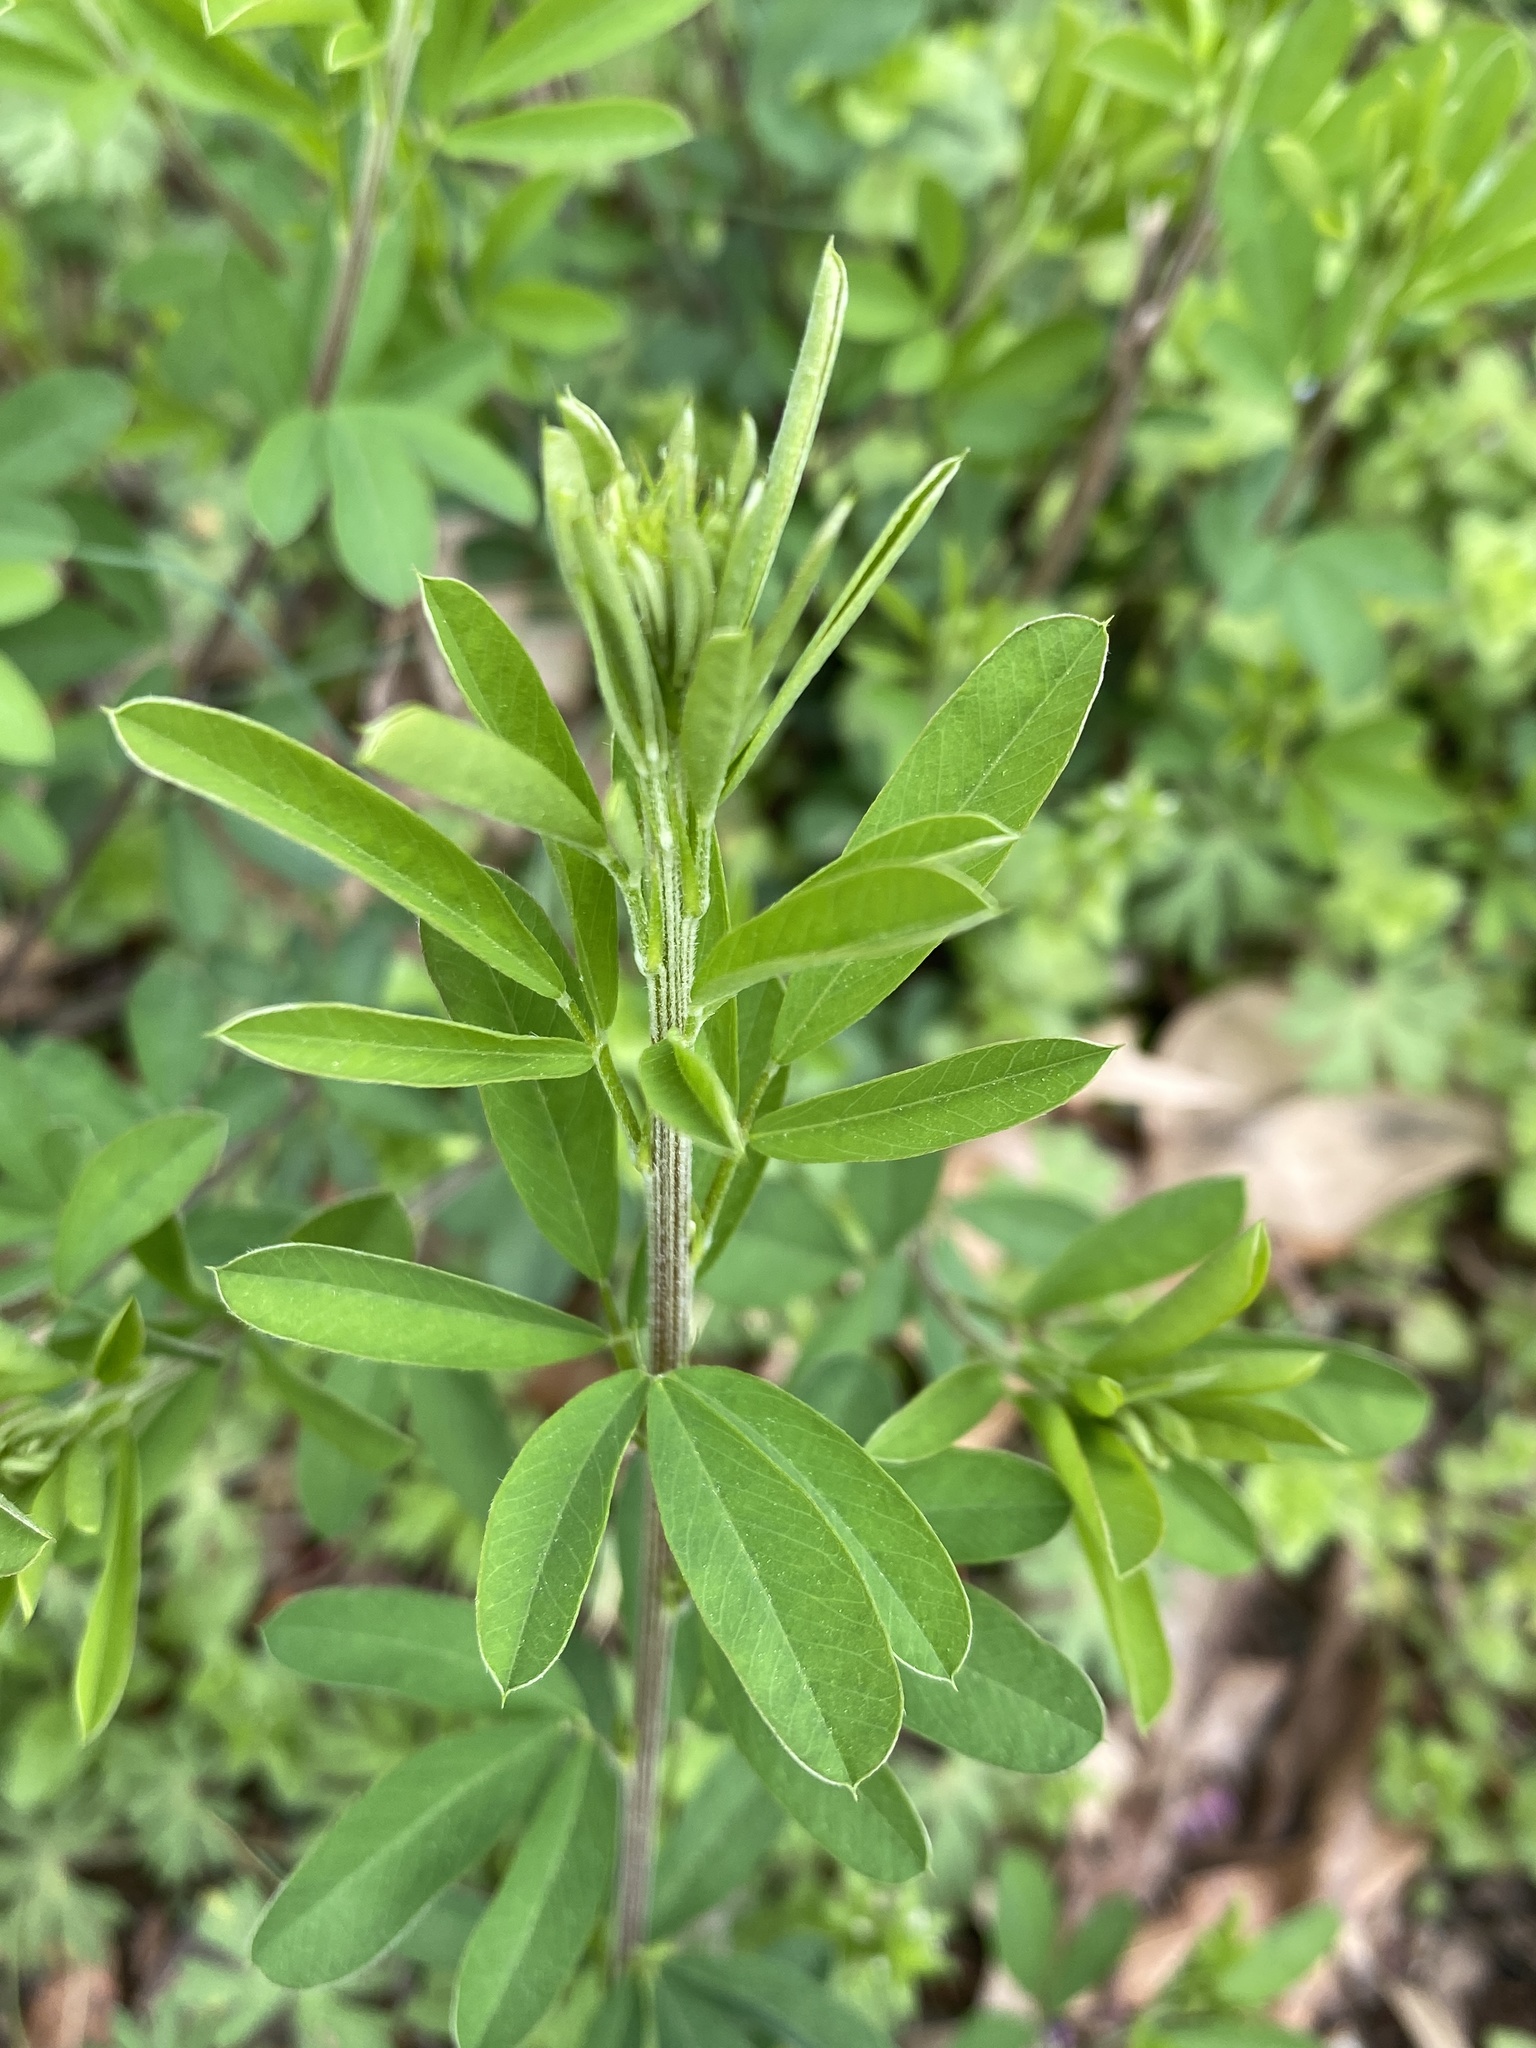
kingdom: Plantae
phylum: Tracheophyta
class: Magnoliopsida
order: Fabales
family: Fabaceae
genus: Lespedeza
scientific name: Lespedeza cuneata
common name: Chinese bush-clover
